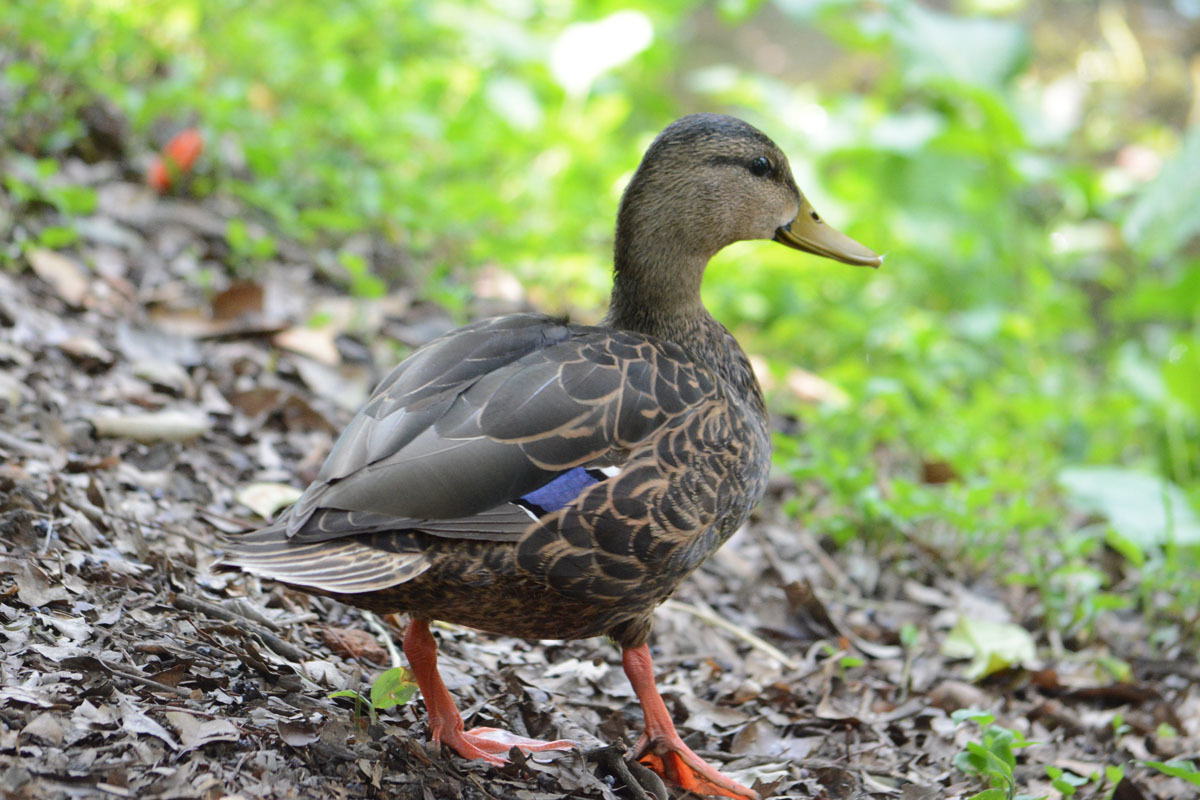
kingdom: Animalia
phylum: Chordata
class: Aves
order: Anseriformes
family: Anatidae
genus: Anas
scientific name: Anas diazi
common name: Mexican duck
